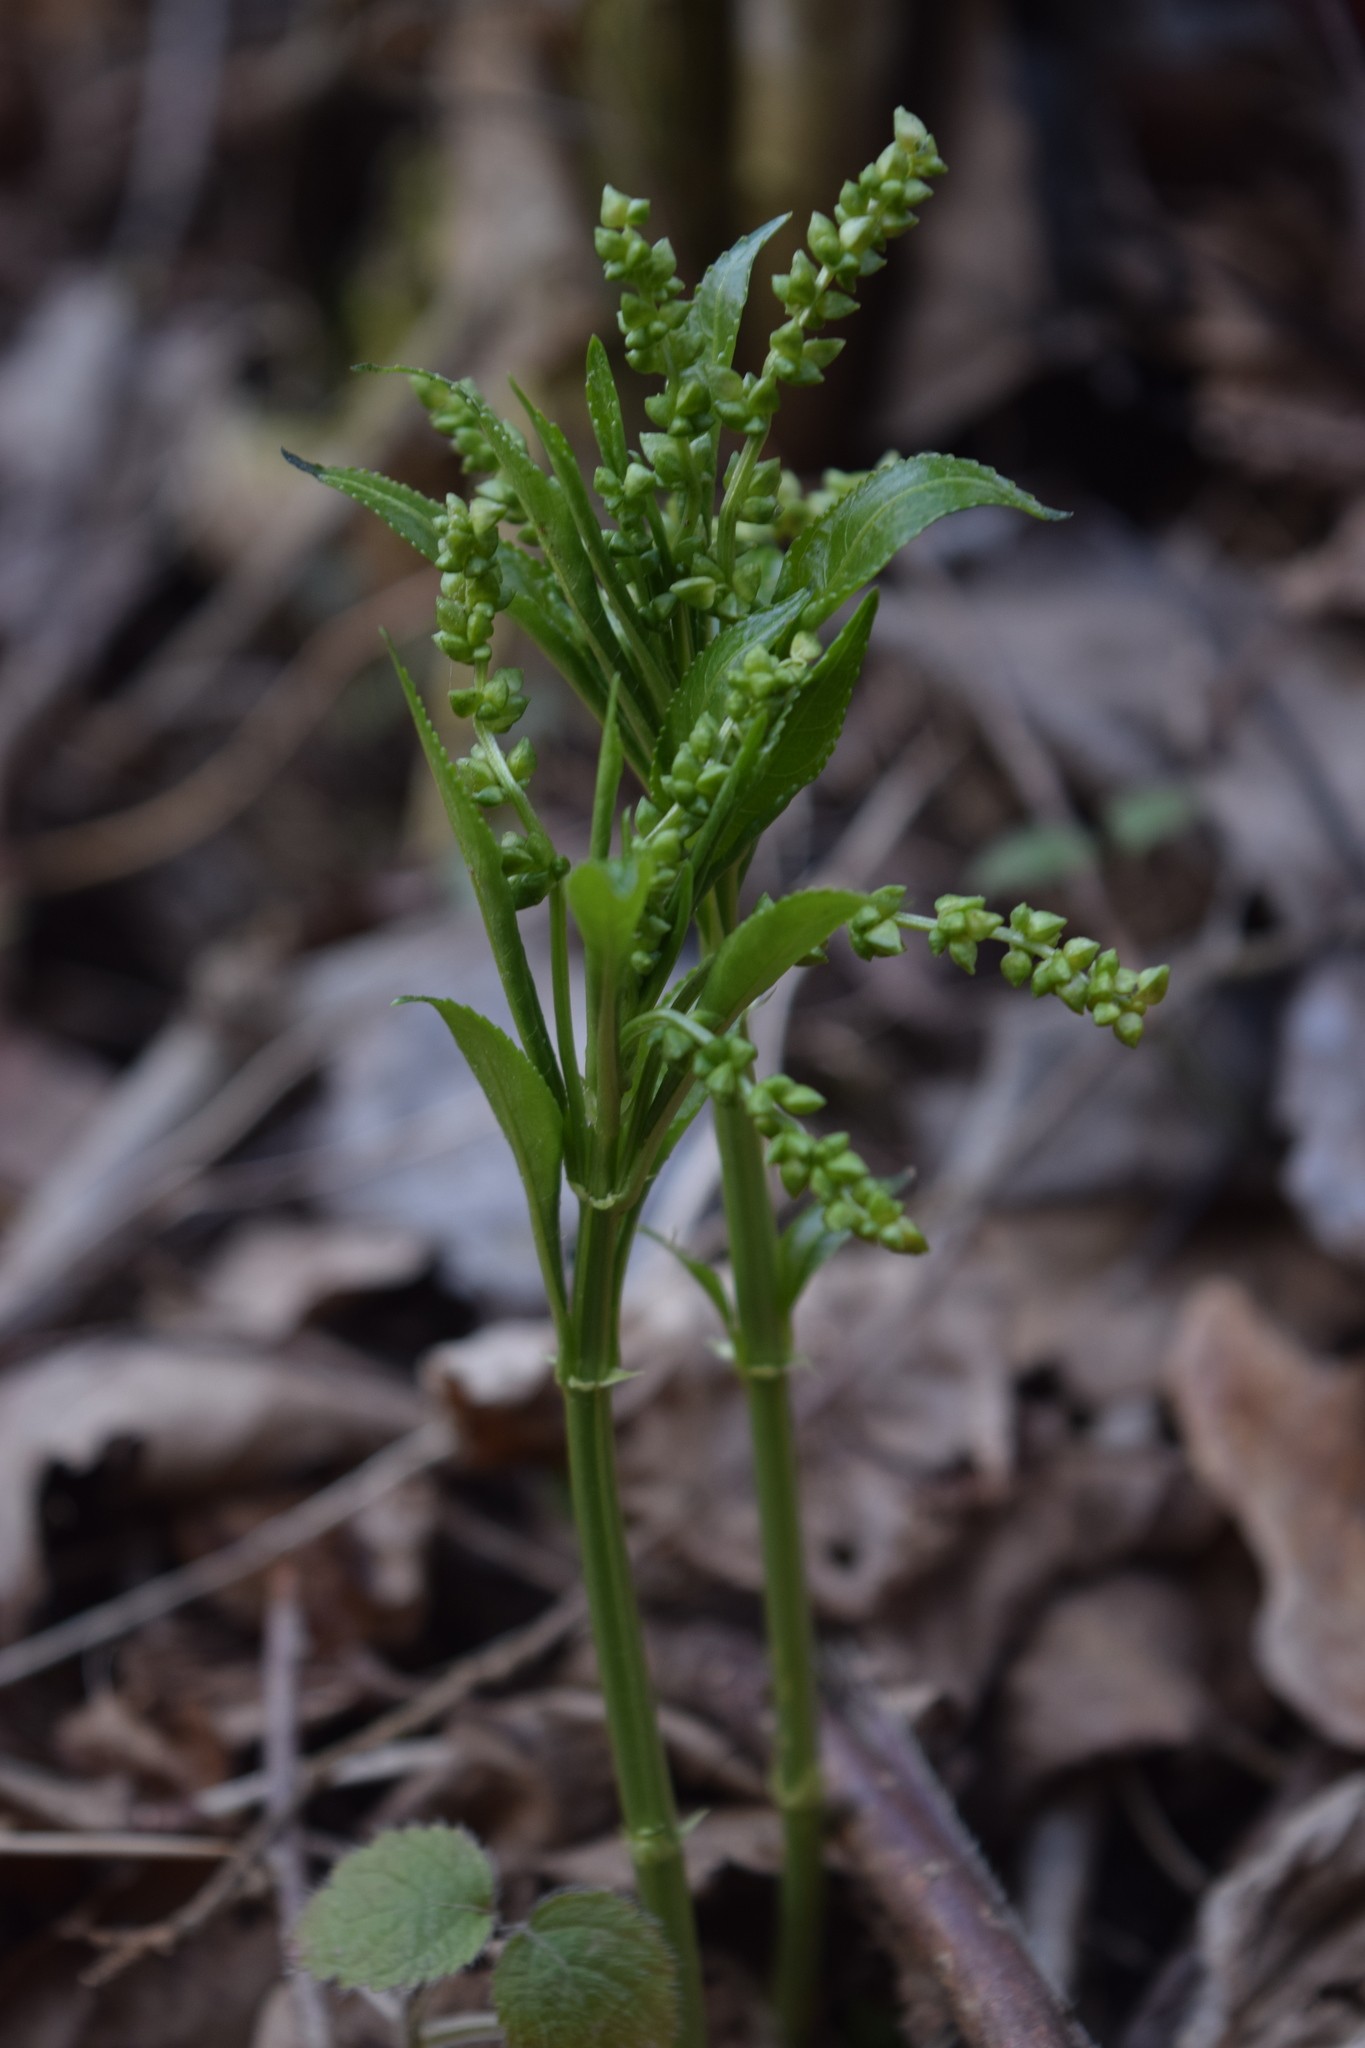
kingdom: Plantae
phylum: Tracheophyta
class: Magnoliopsida
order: Malpighiales
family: Euphorbiaceae
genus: Mercurialis
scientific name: Mercurialis perennis
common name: Dog mercury
